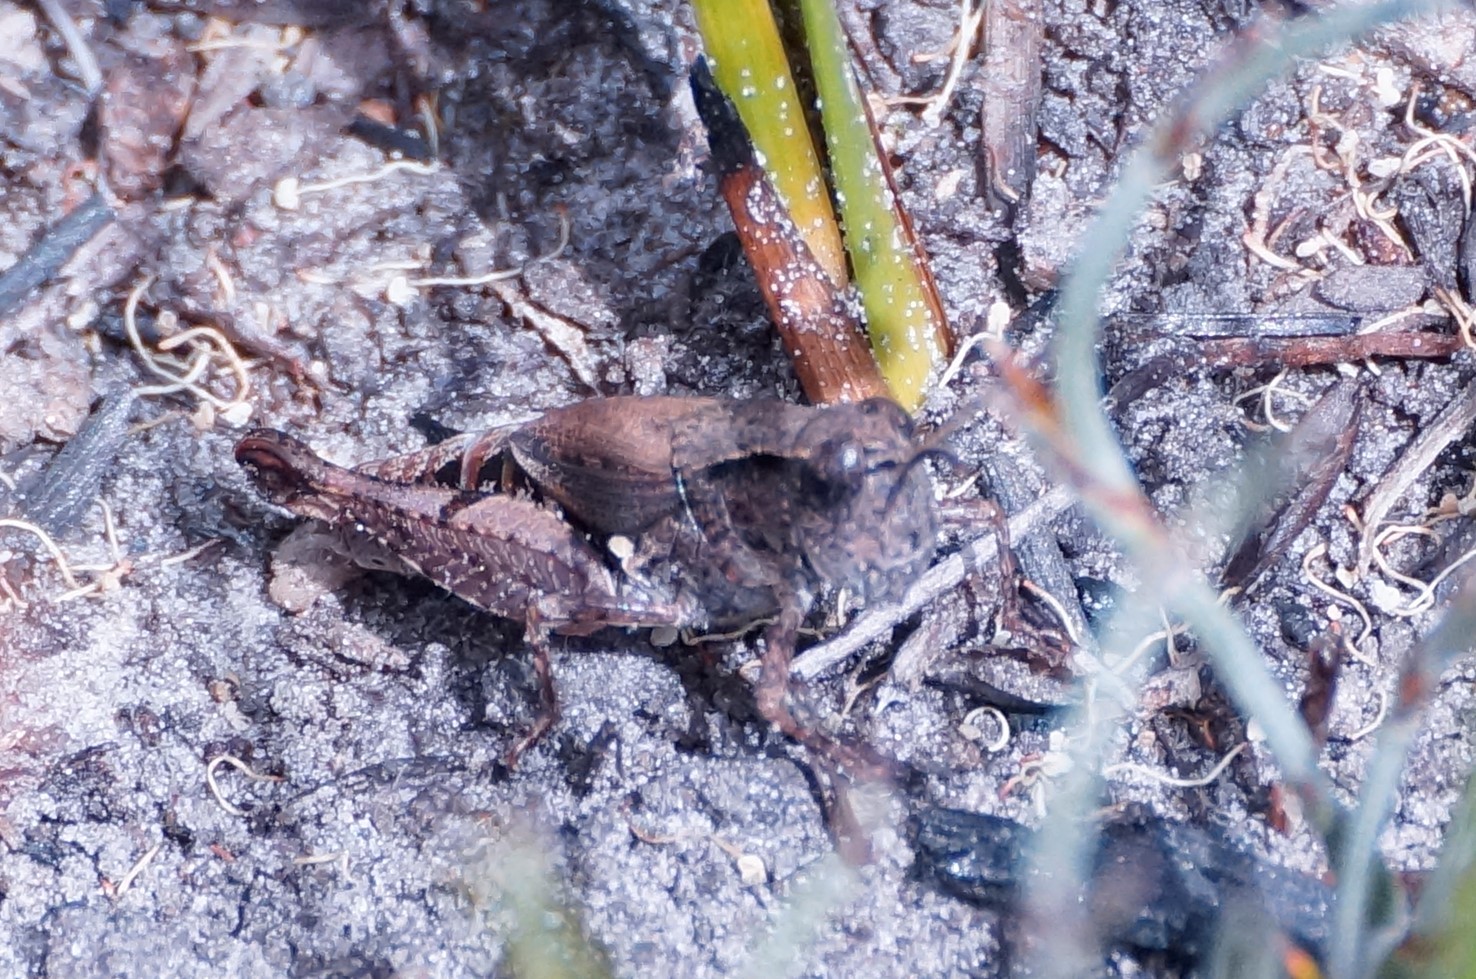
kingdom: Animalia
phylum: Arthropoda
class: Insecta
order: Orthoptera
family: Acrididae
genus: Phaulacridium
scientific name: Phaulacridium vittatum
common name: Wingless grasshopper
